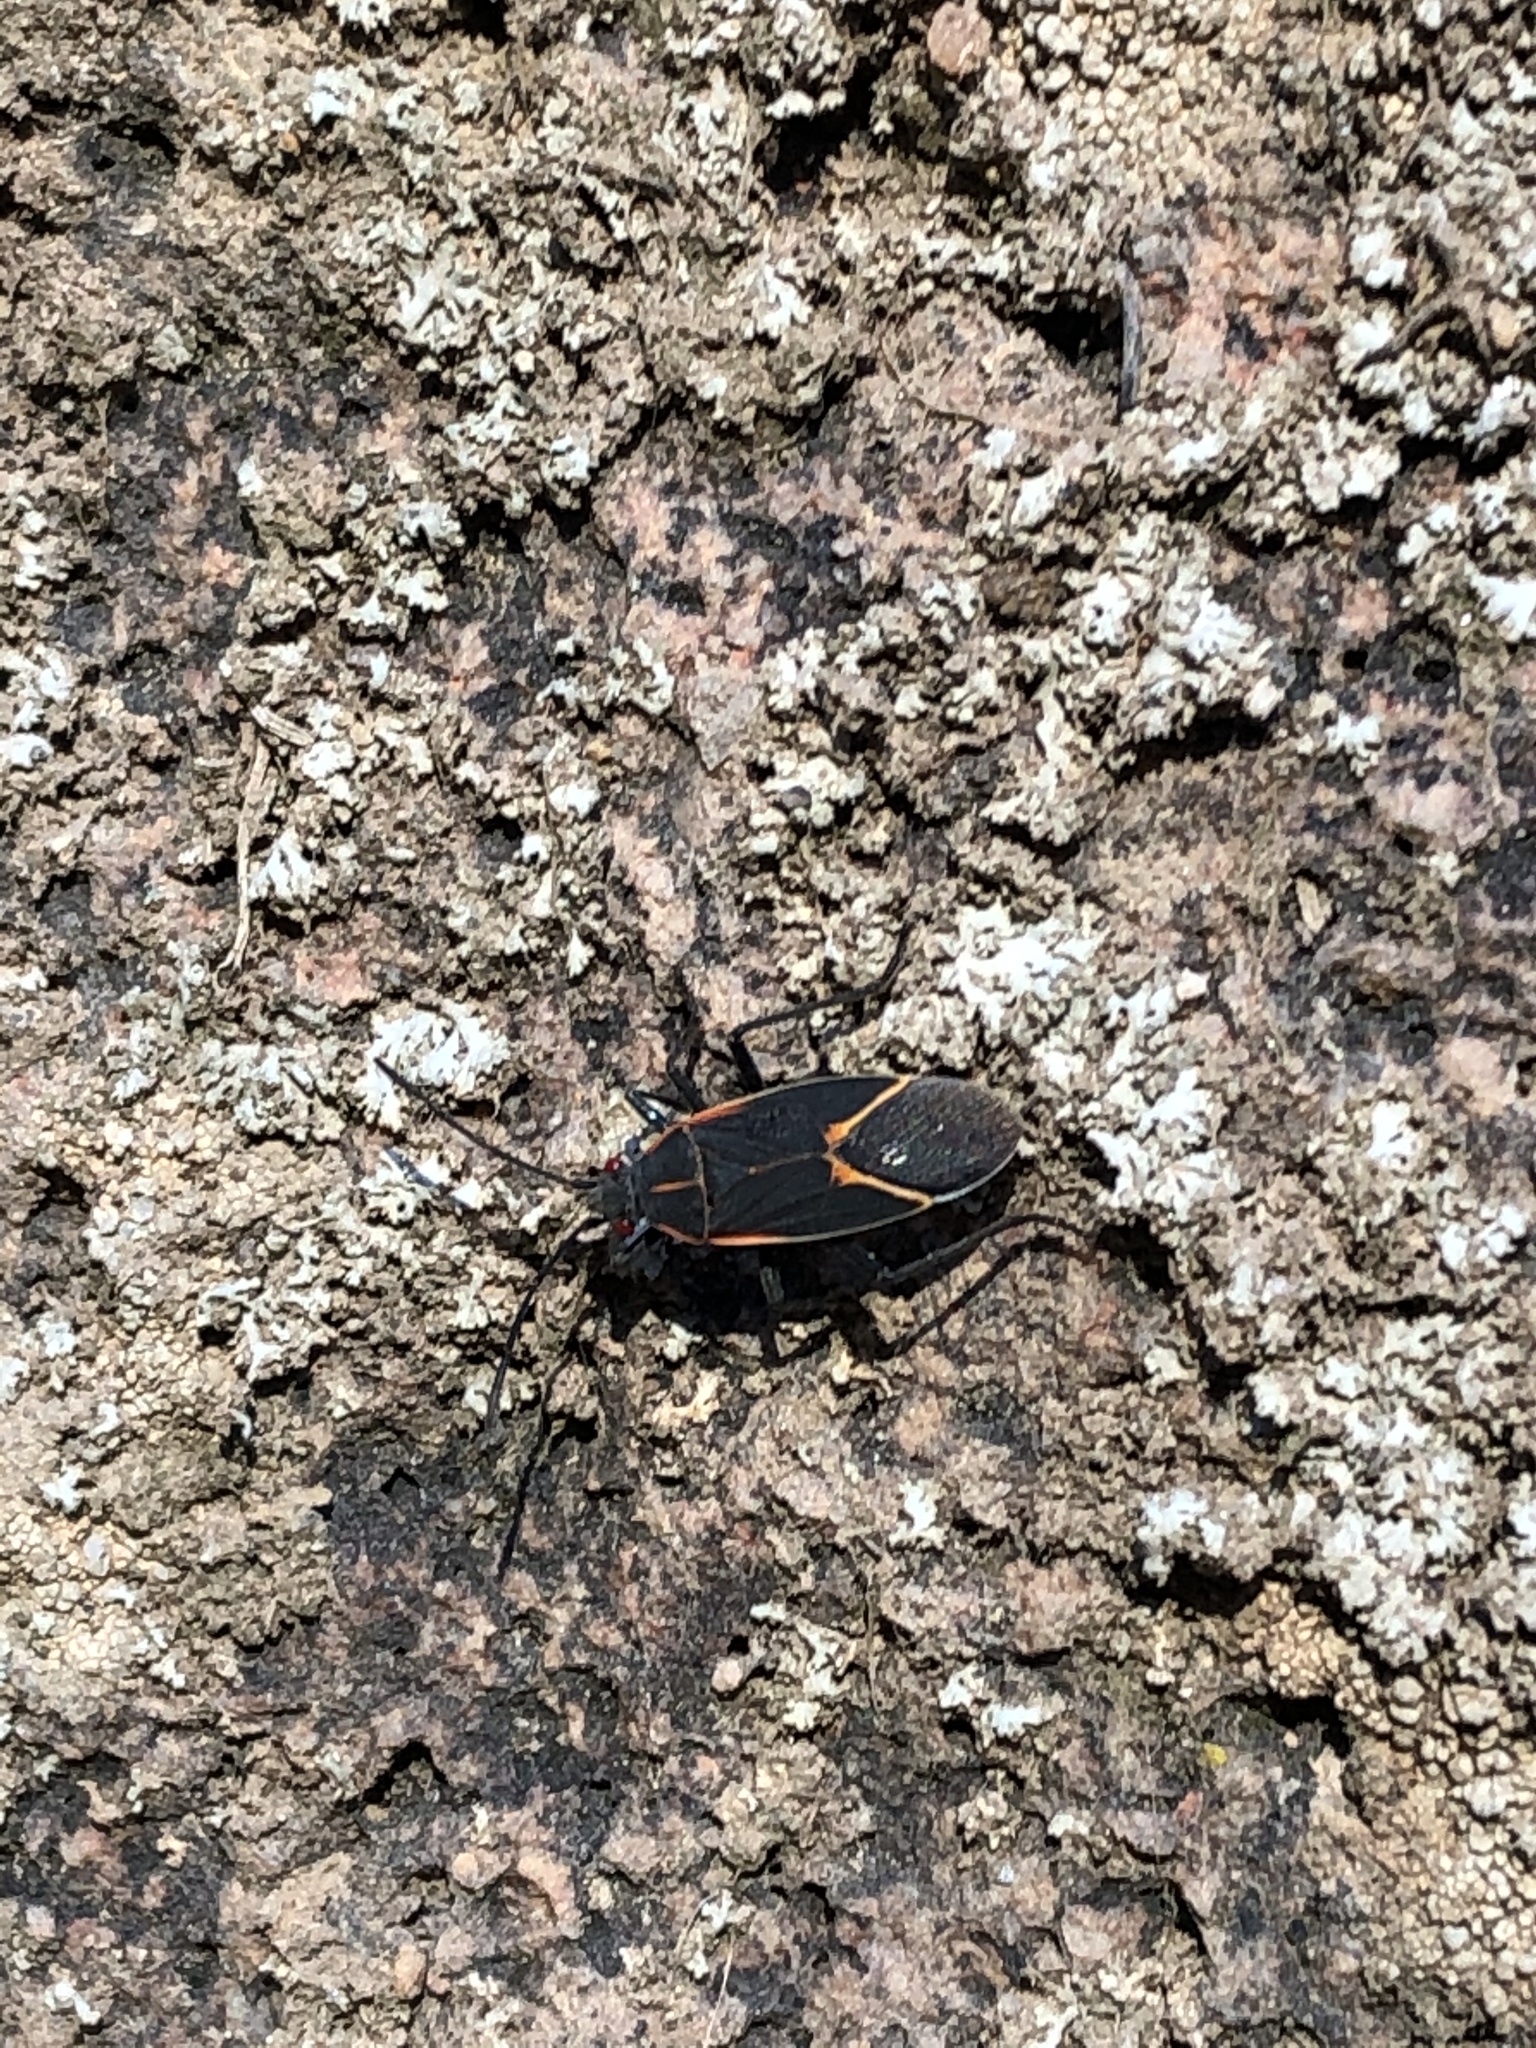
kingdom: Animalia
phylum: Arthropoda
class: Insecta
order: Hemiptera
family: Rhopalidae
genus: Boisea
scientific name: Boisea trivittata
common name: Boxelder bug
